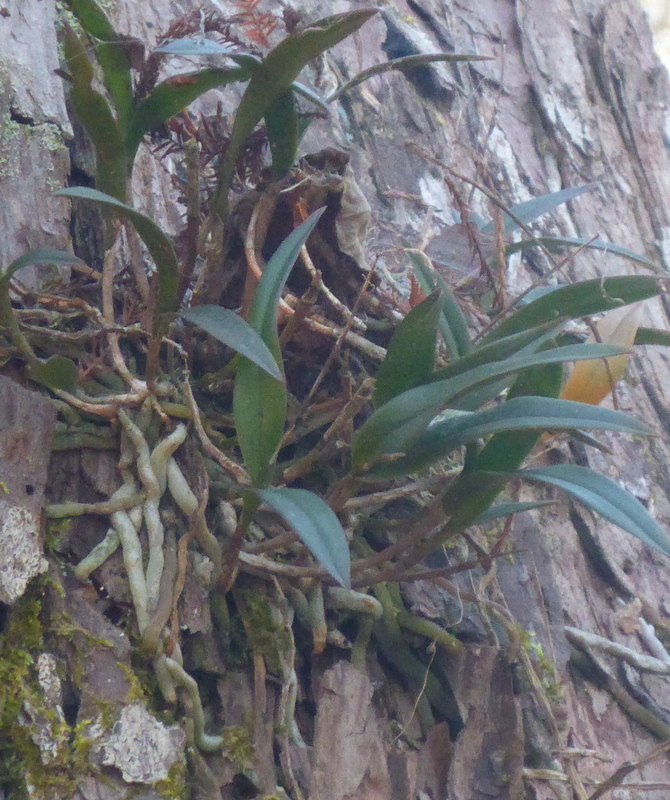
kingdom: Plantae
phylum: Tracheophyta
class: Liliopsida
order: Asparagales
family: Orchidaceae
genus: Epidendrum
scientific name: Epidendrum conopseum
